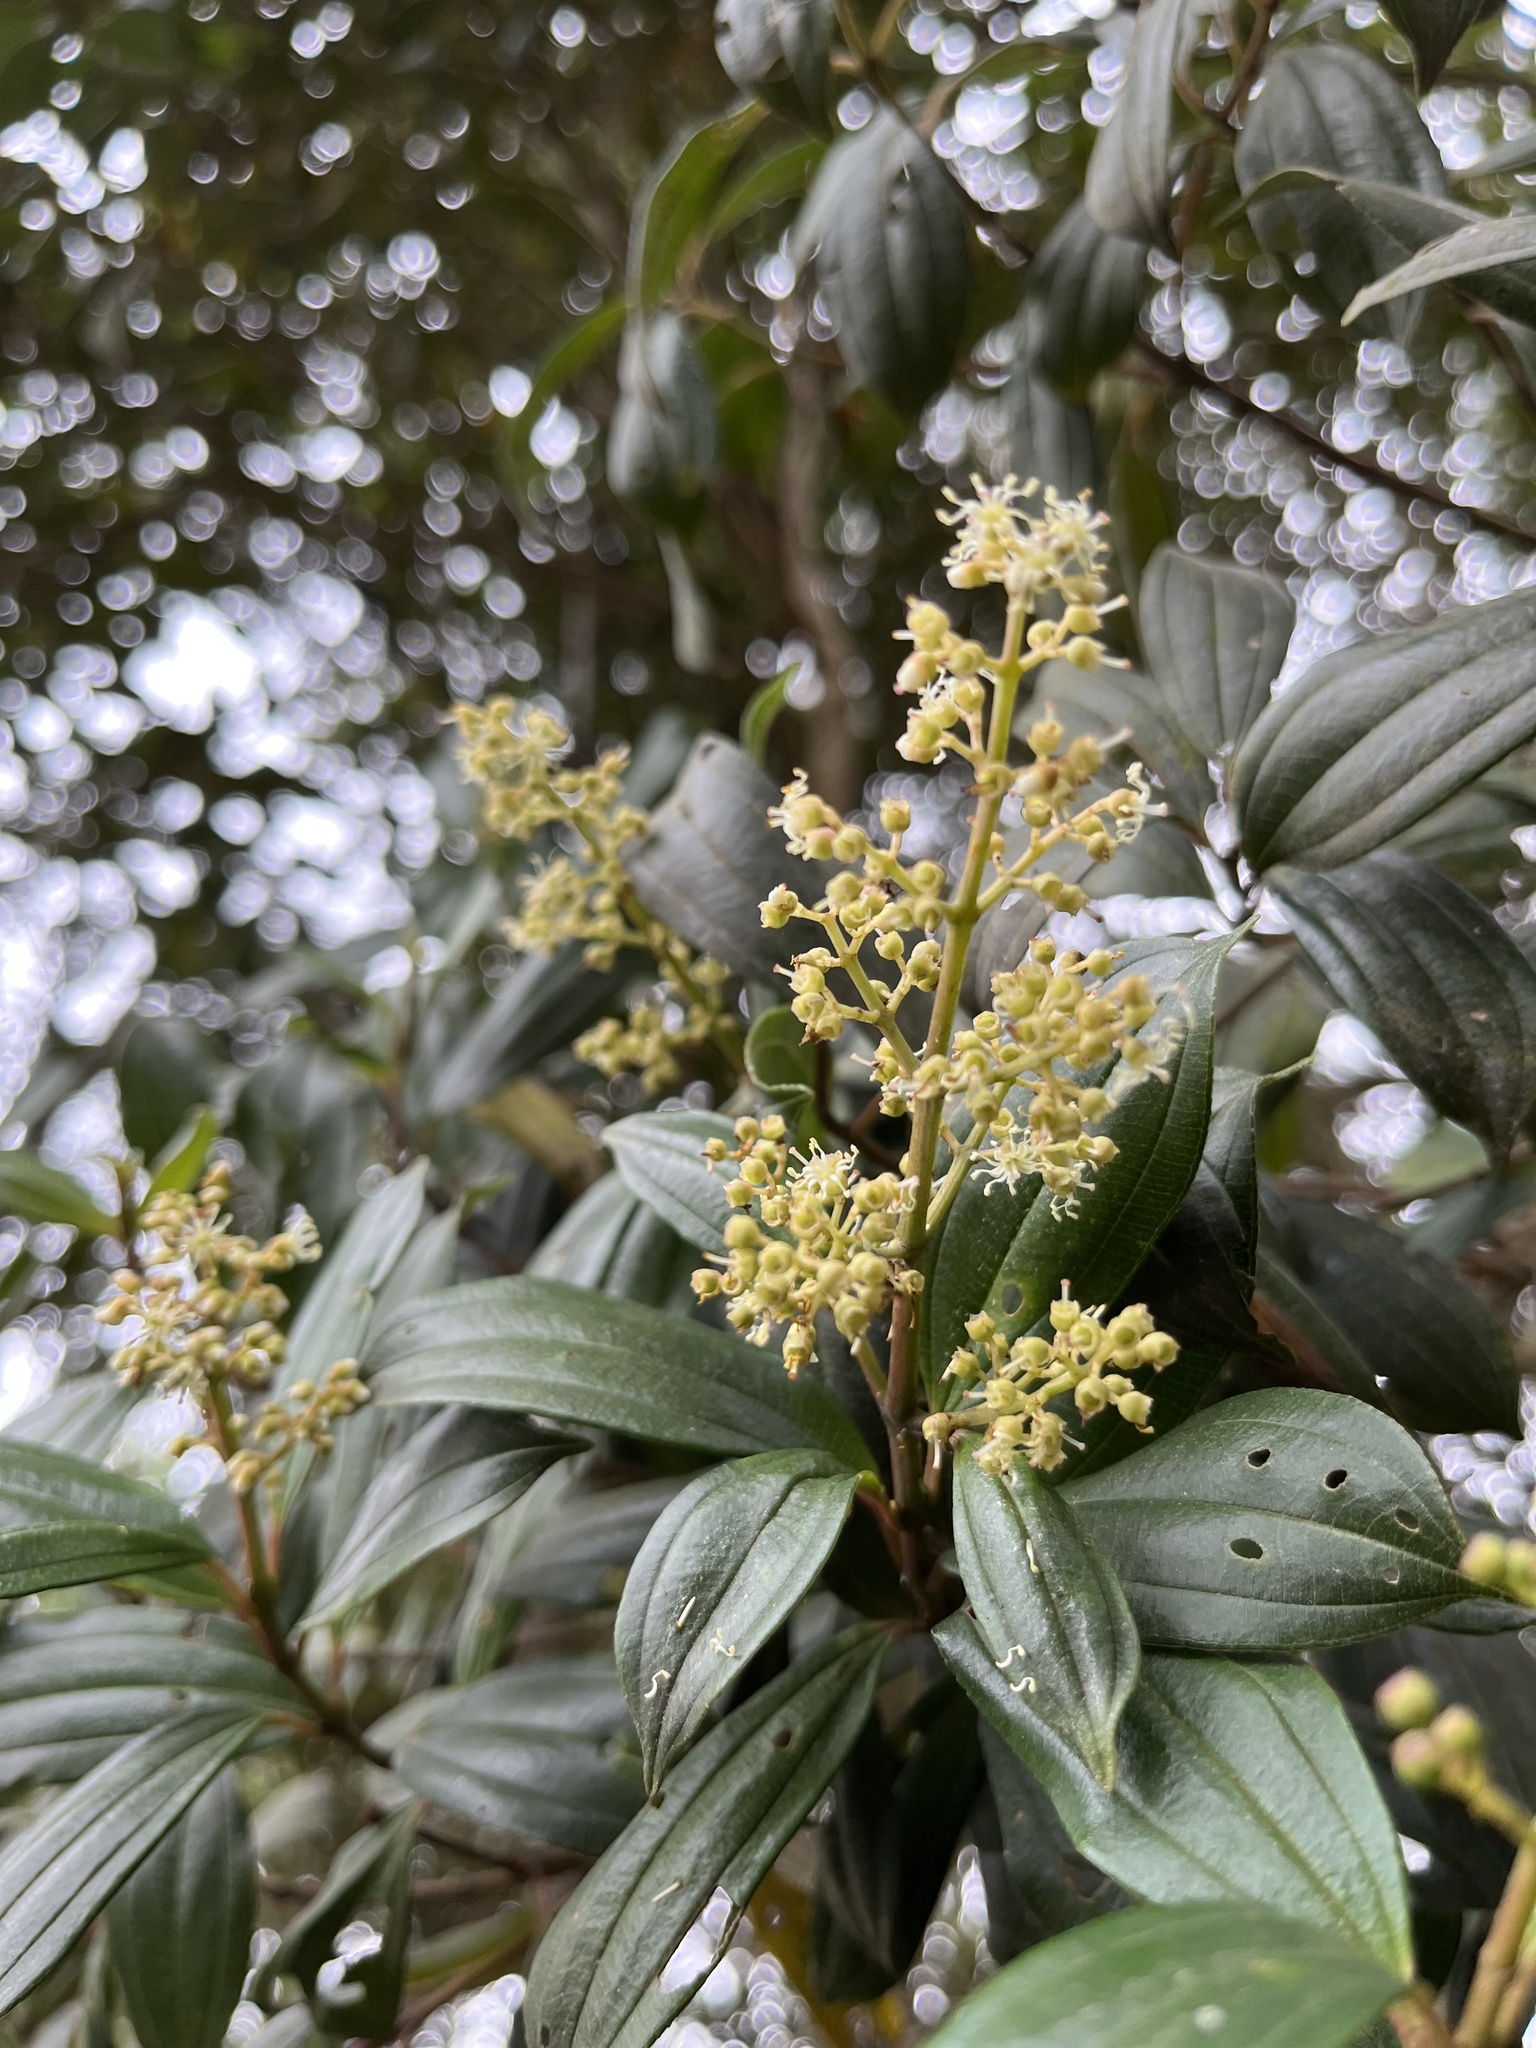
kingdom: Plantae
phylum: Tracheophyta
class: Magnoliopsida
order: Myrtales
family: Melastomataceae
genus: Miconia
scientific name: Miconia theizans
